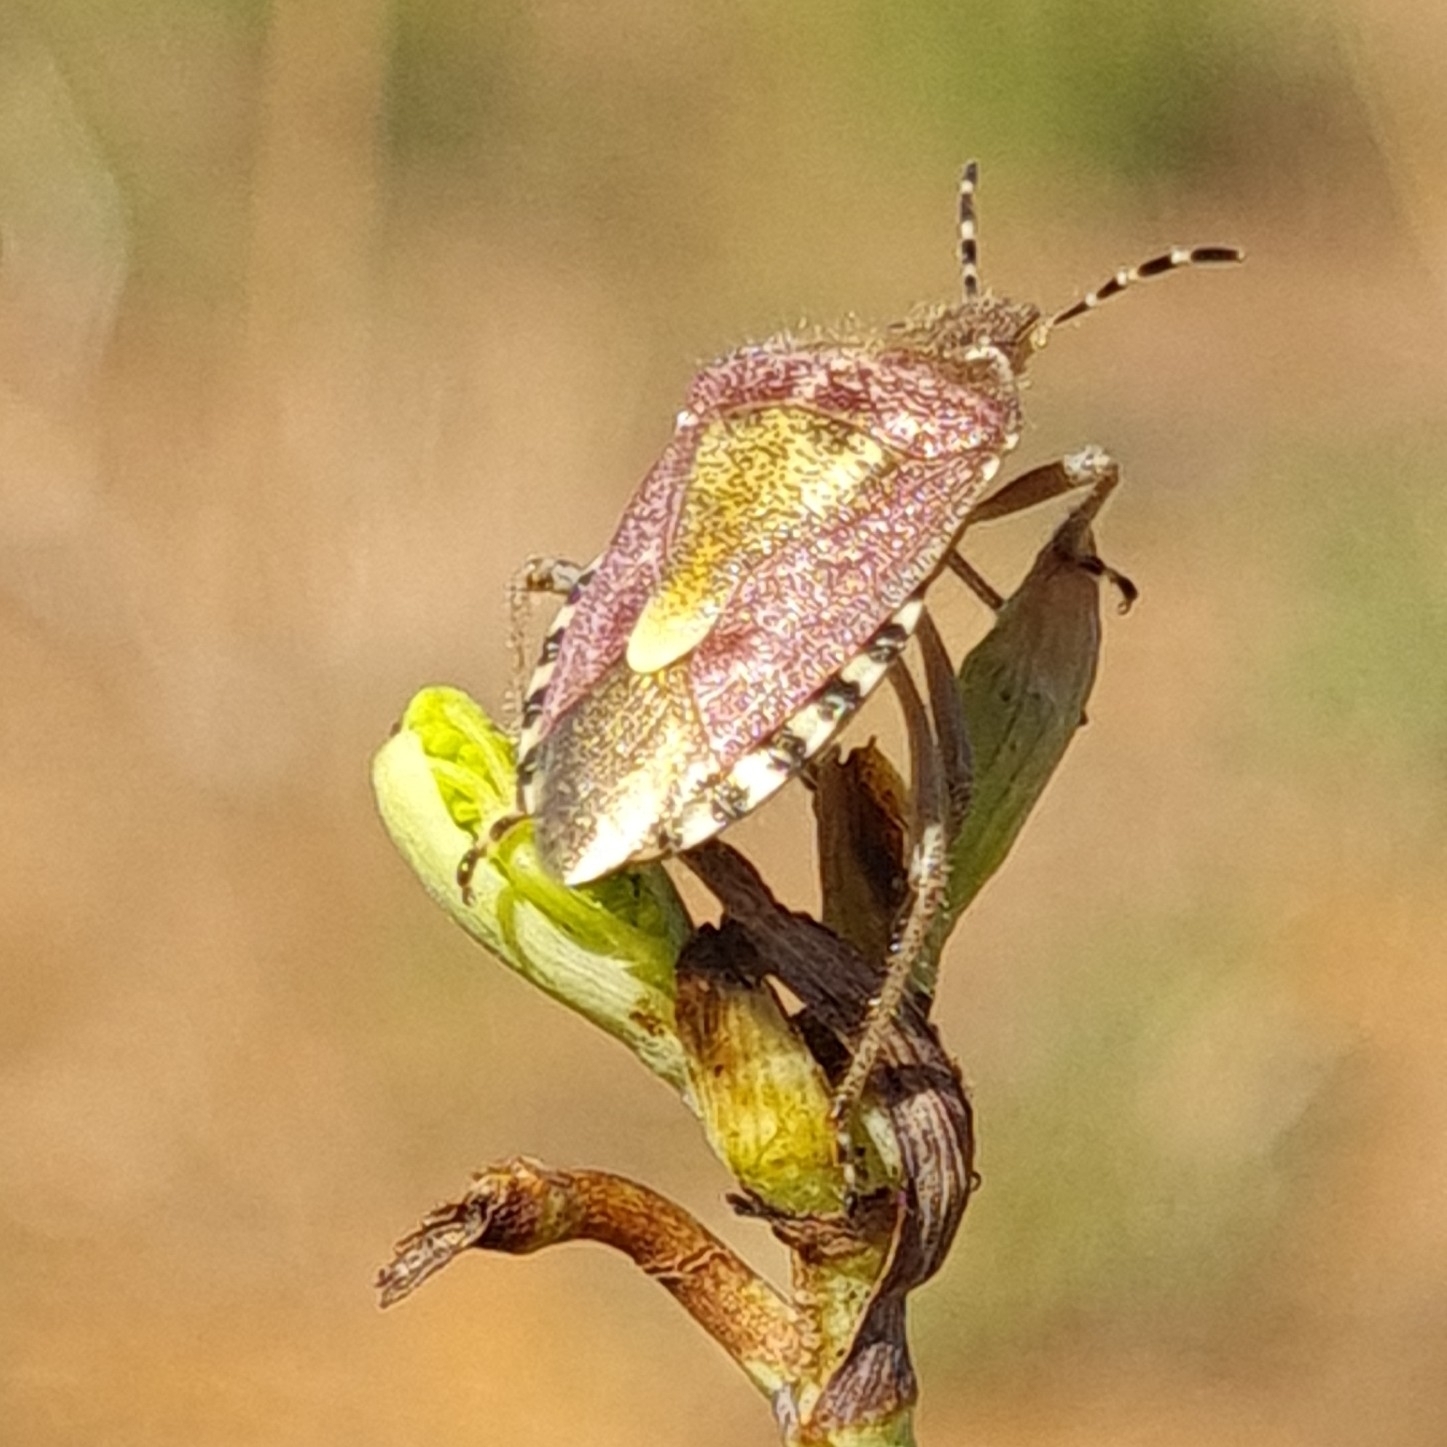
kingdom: Animalia
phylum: Arthropoda
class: Insecta
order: Hemiptera
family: Pentatomidae
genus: Dolycoris
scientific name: Dolycoris baccarum
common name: Sloe bug
